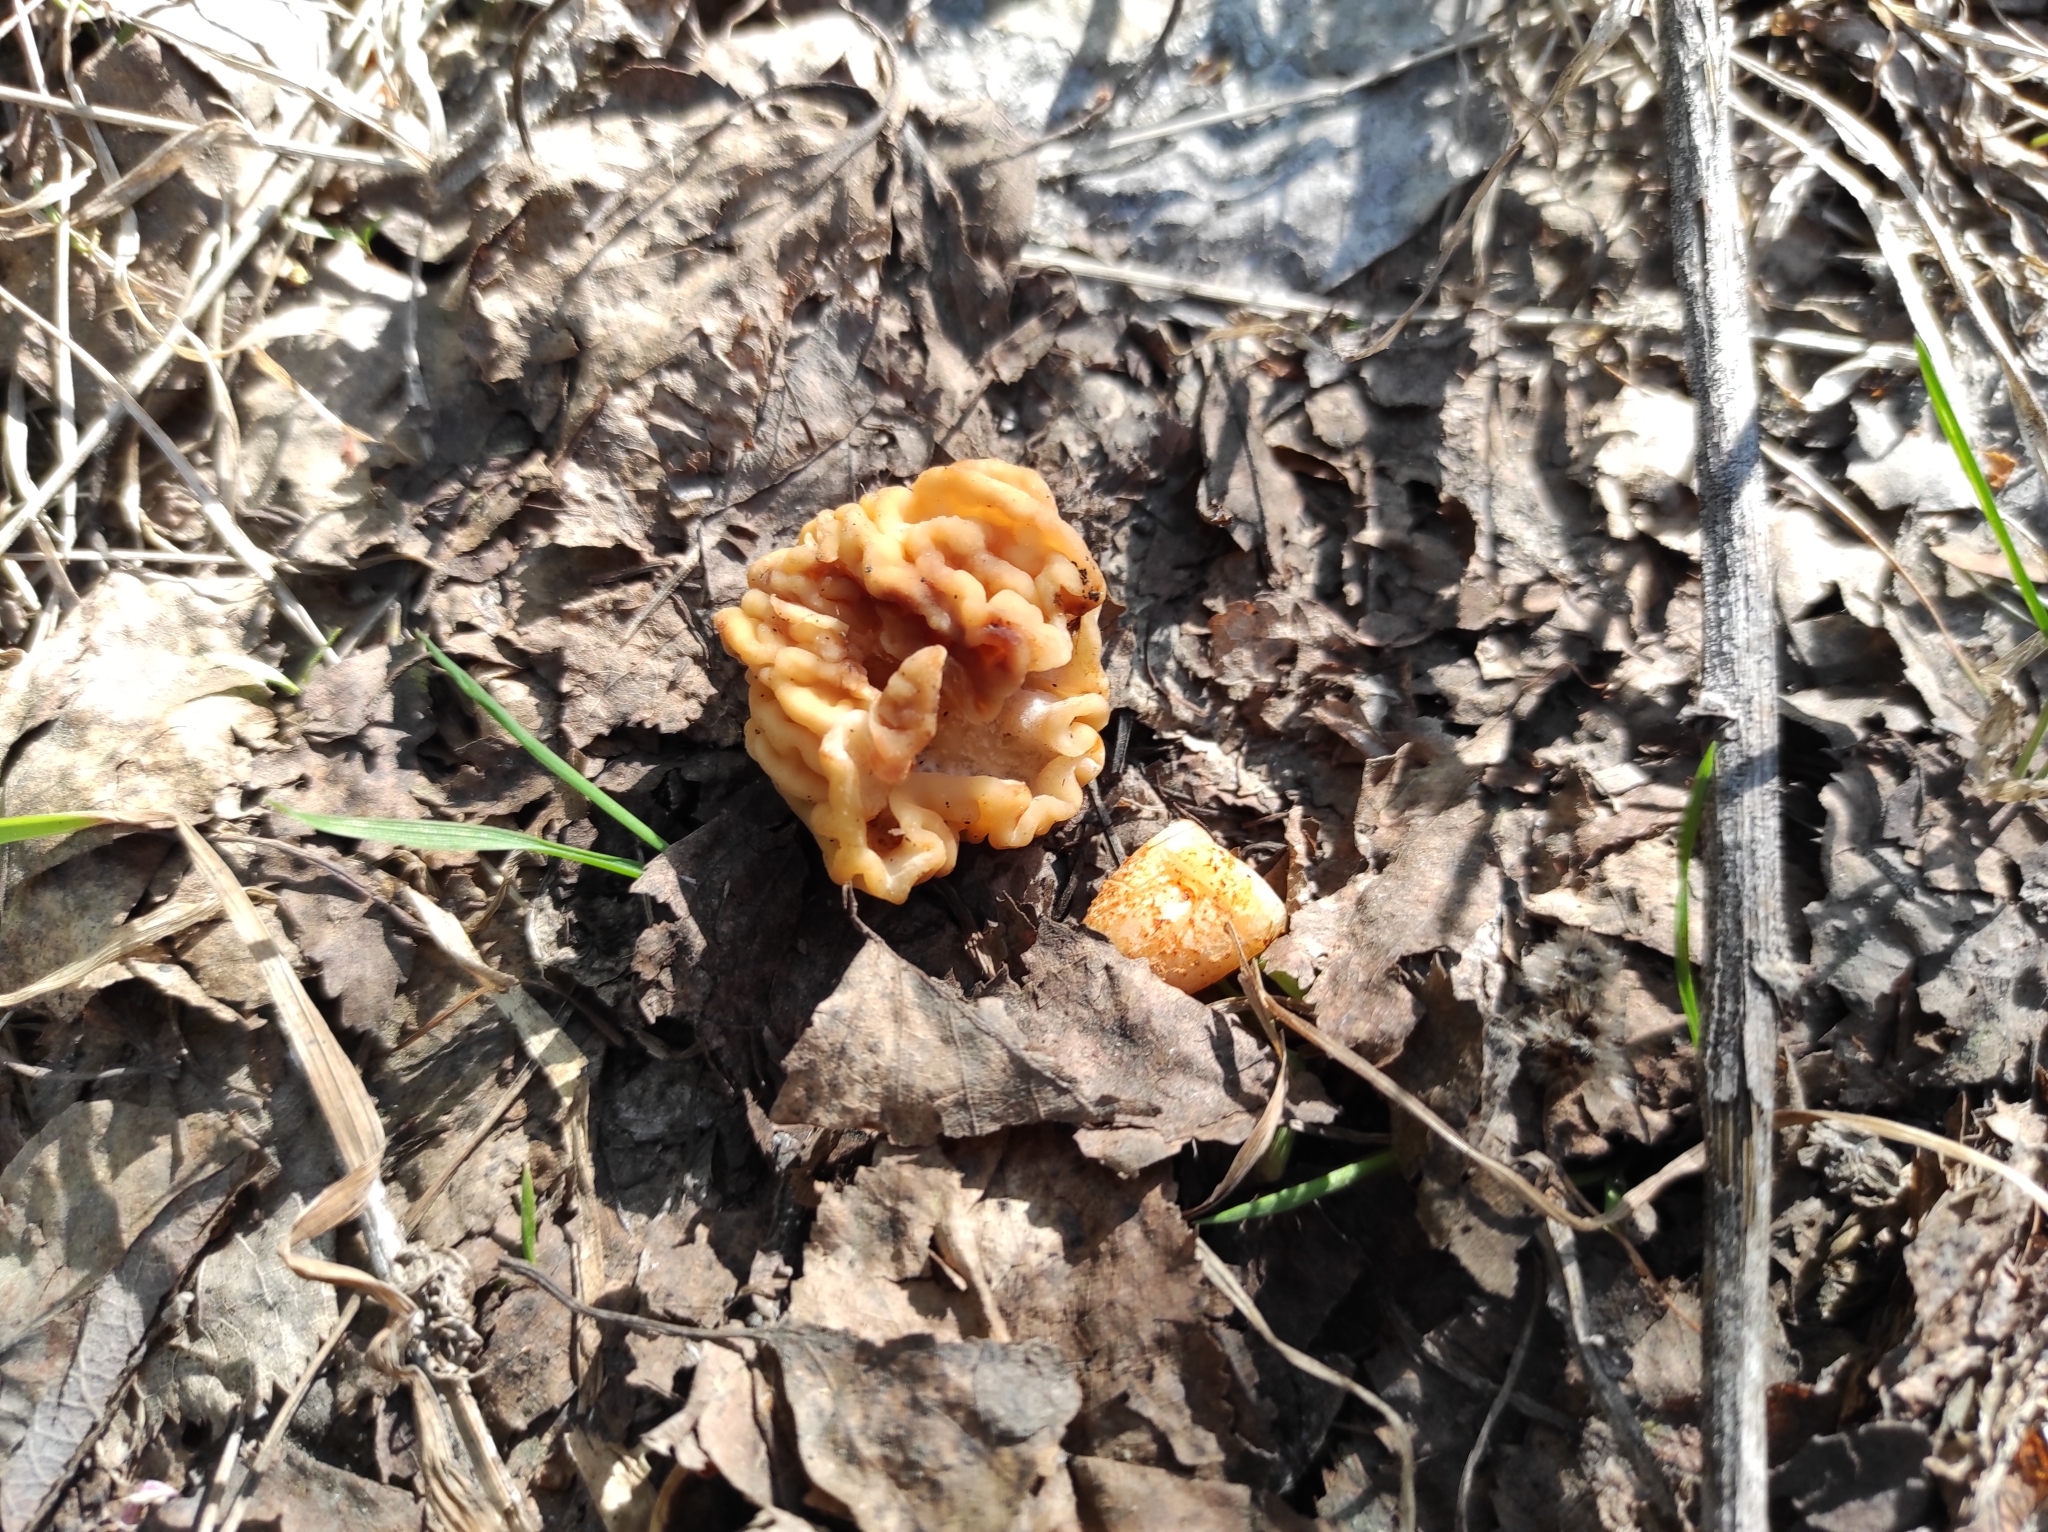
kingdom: Fungi
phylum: Ascomycota
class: Pezizomycetes
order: Pezizales
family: Morchellaceae
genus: Verpa
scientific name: Verpa bohemica
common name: Wrinkled thimble morel
